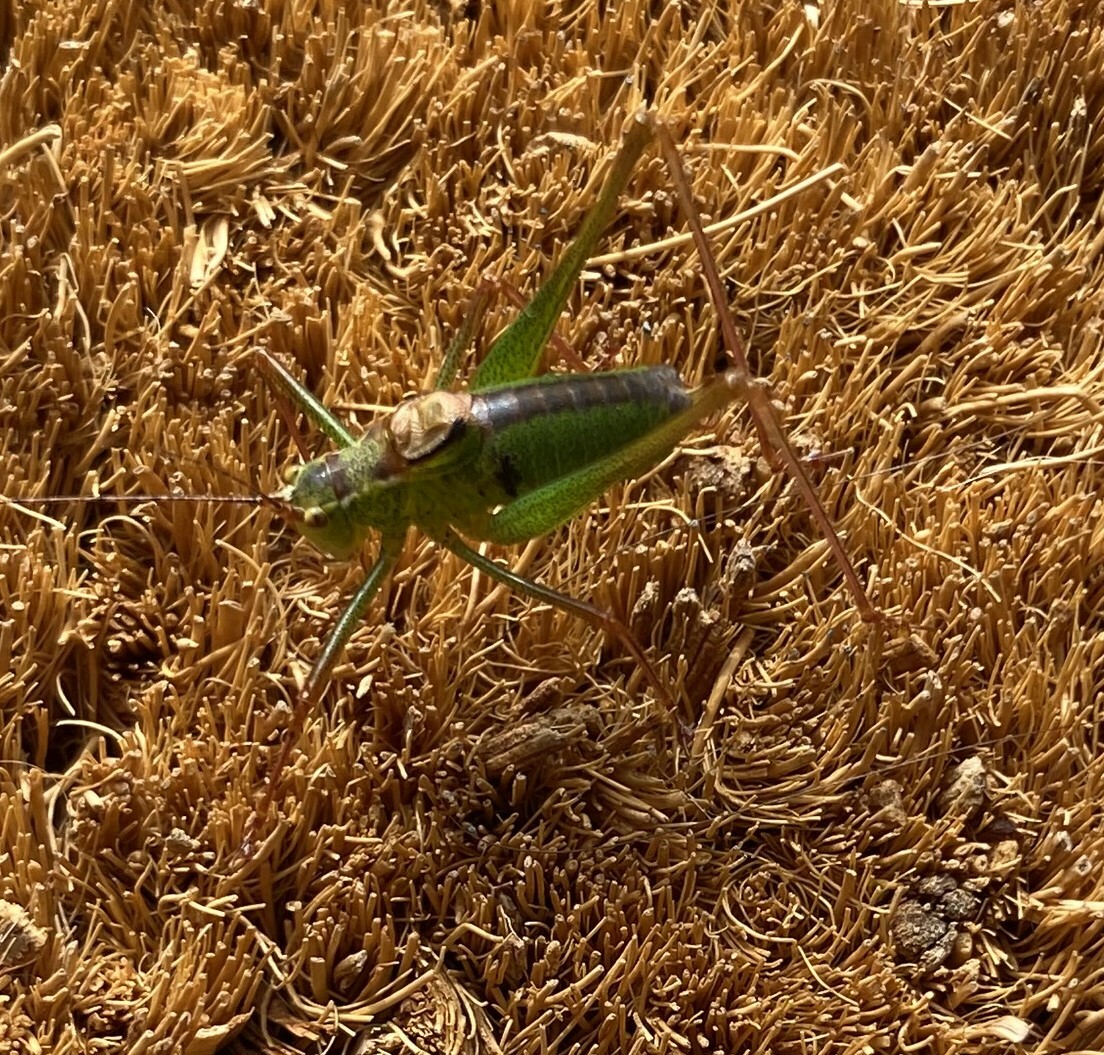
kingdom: Animalia
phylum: Arthropoda
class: Insecta
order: Orthoptera
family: Tettigoniidae
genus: Leptophyes
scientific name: Leptophyes punctatissima
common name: Speckled bush-cricket
